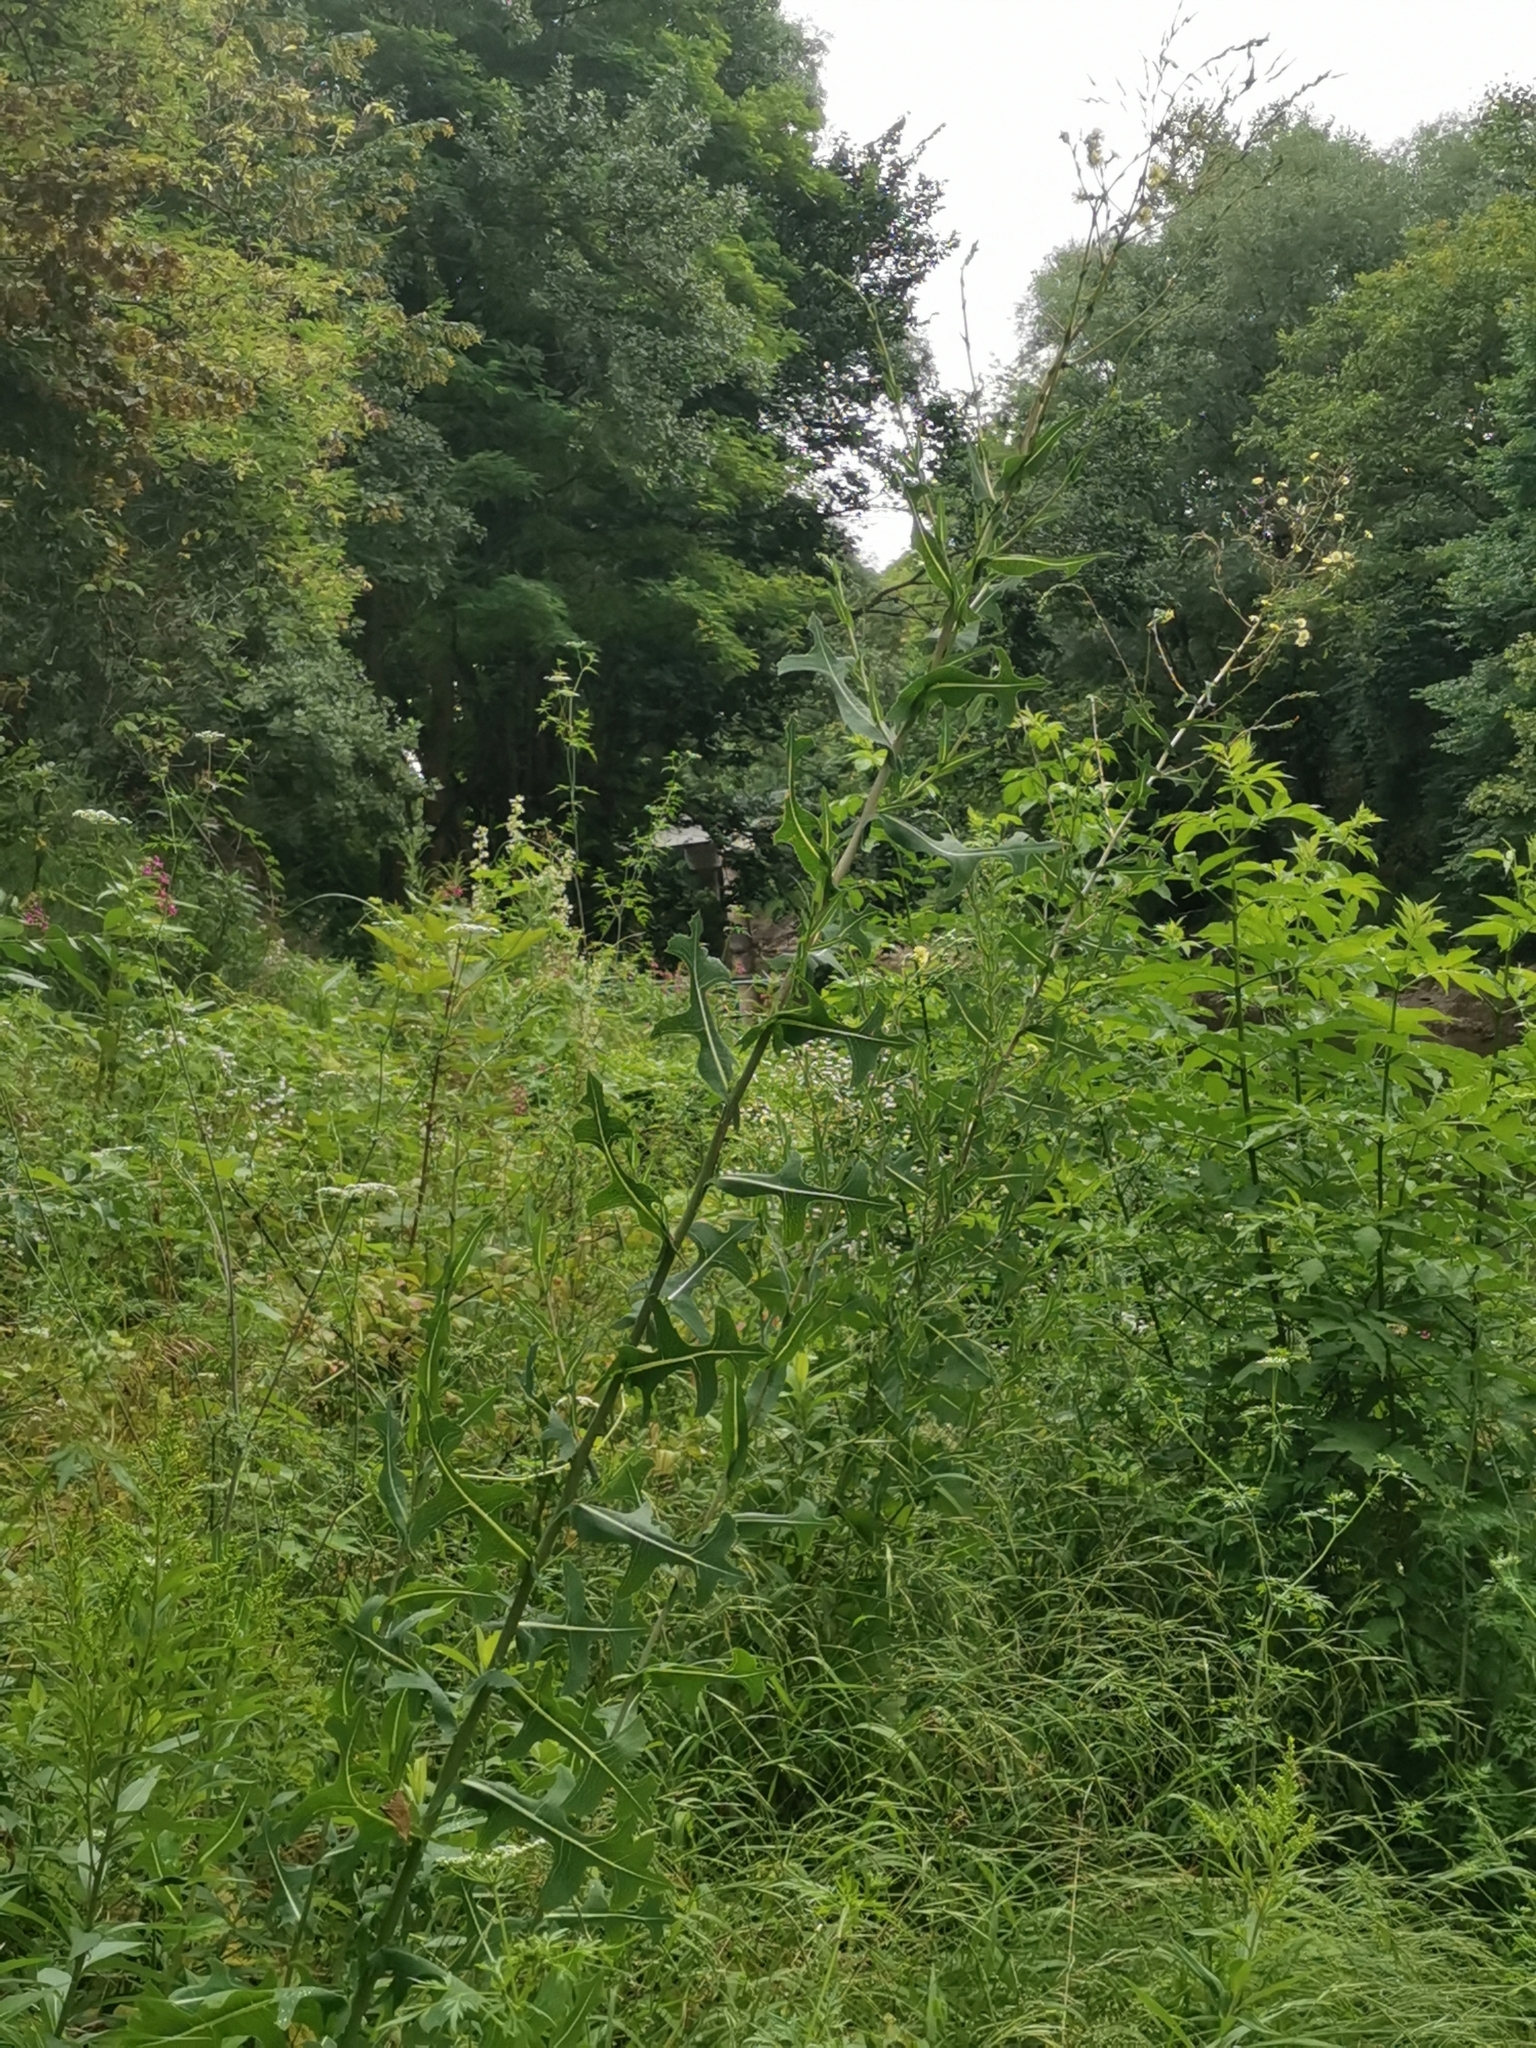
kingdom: Plantae
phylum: Tracheophyta
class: Magnoliopsida
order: Asterales
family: Asteraceae
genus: Lactuca
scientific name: Lactuca serriola
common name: Prickly lettuce
